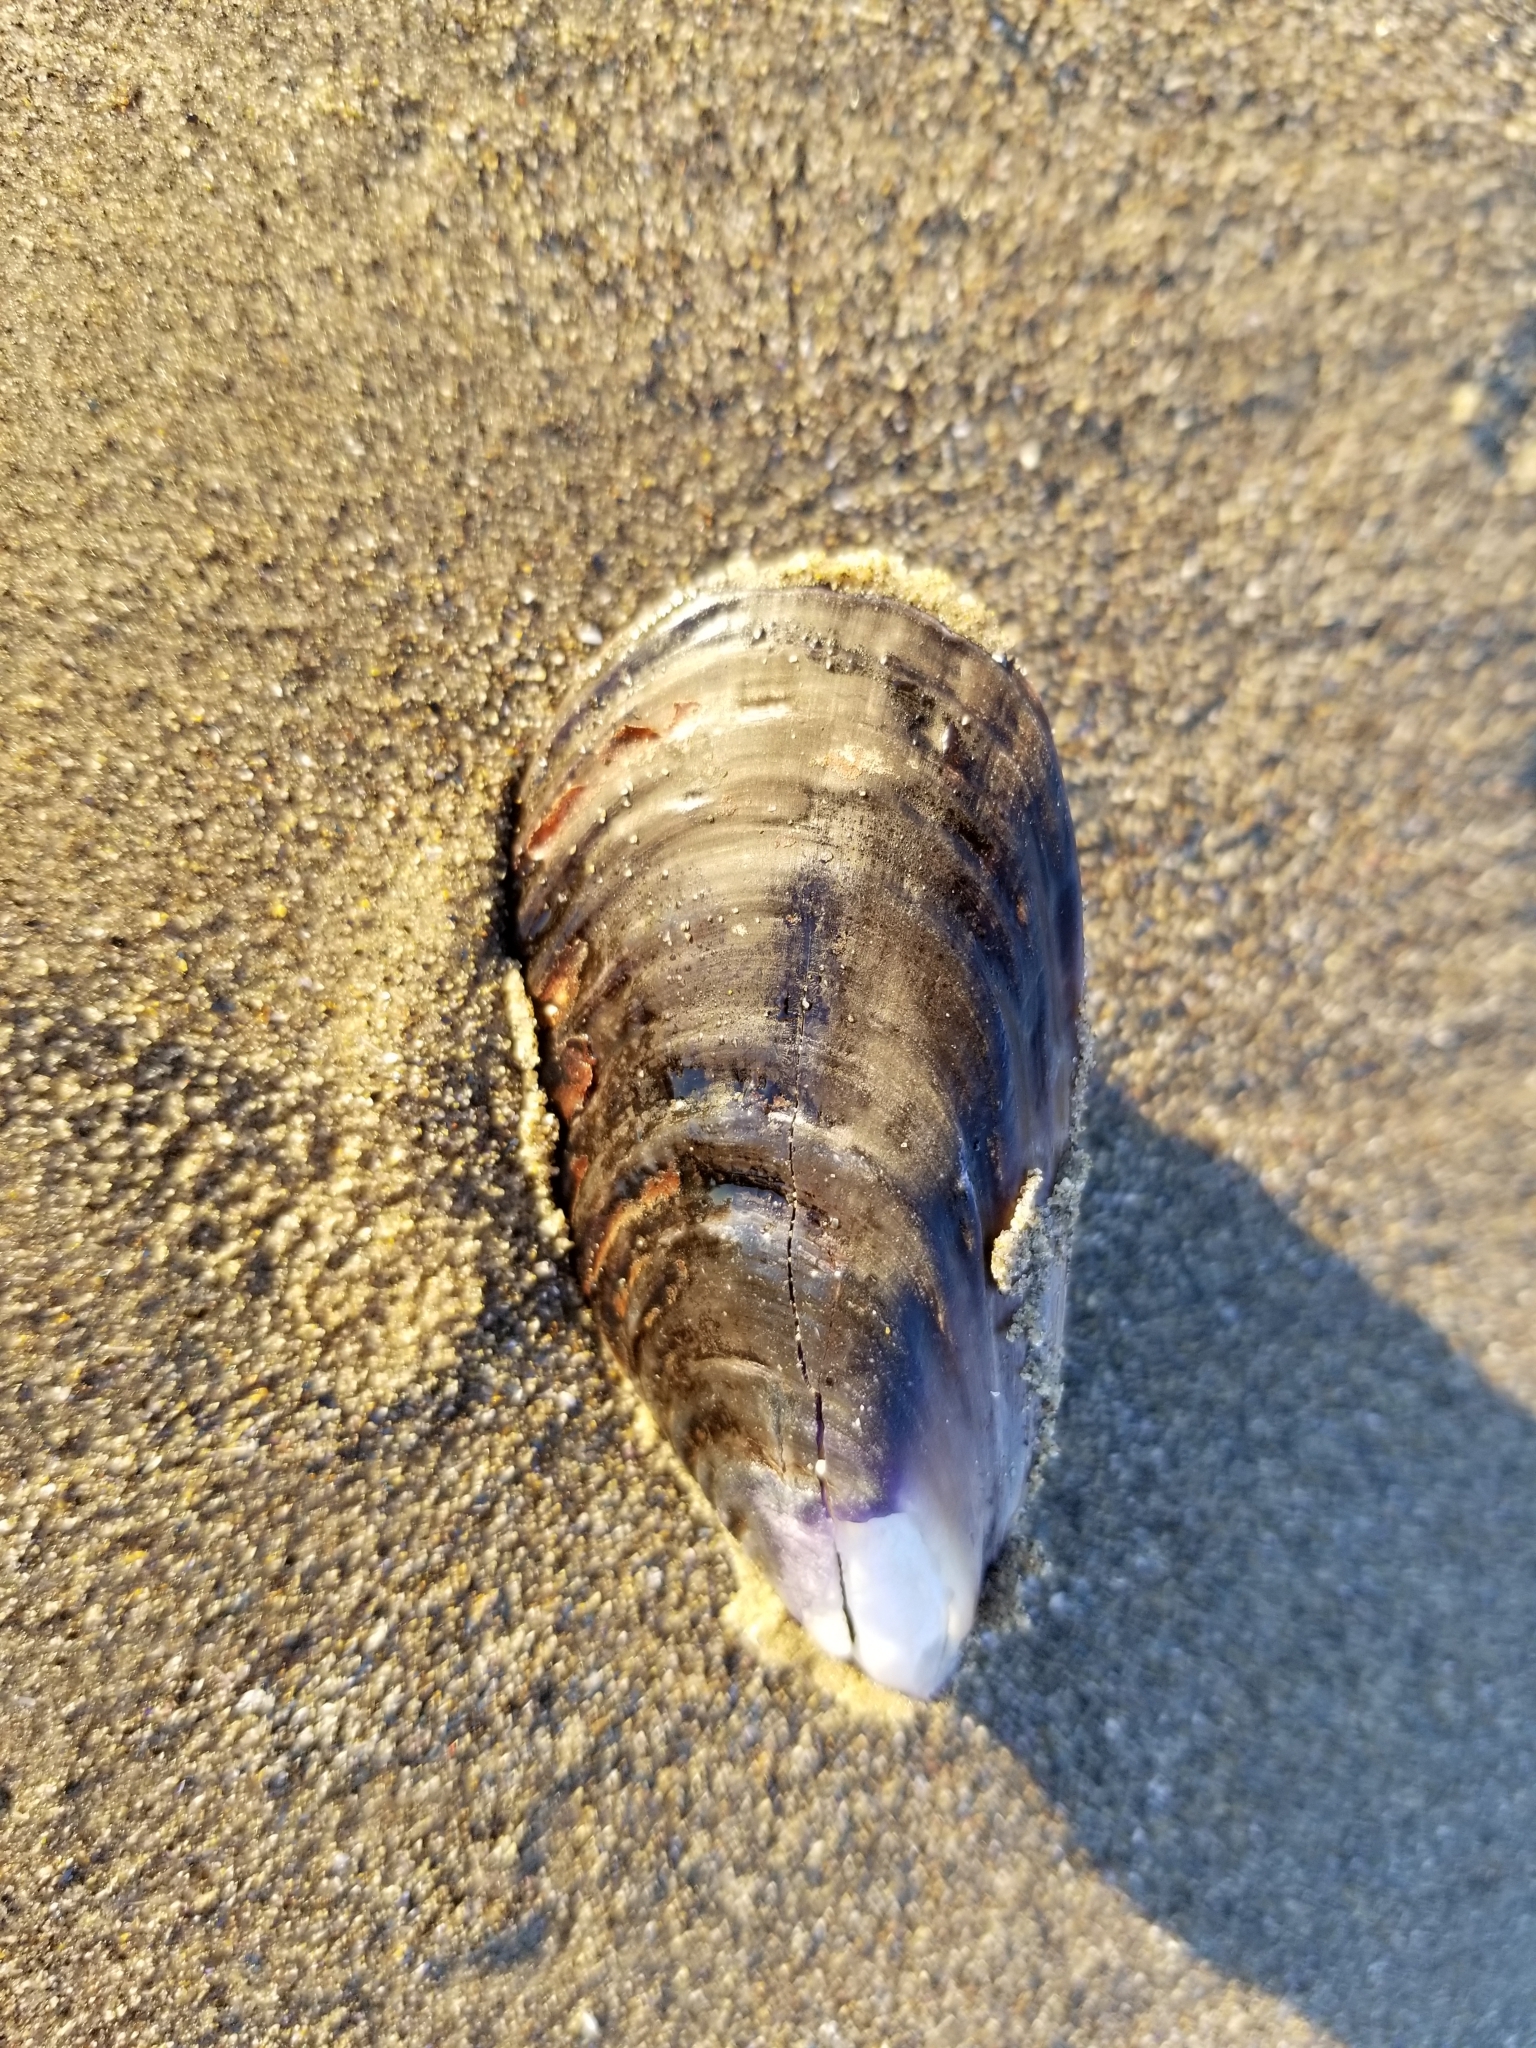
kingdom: Animalia
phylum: Mollusca
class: Bivalvia
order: Mytilida
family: Mytilidae
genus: Mytilus
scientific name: Mytilus californianus
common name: California mussel
